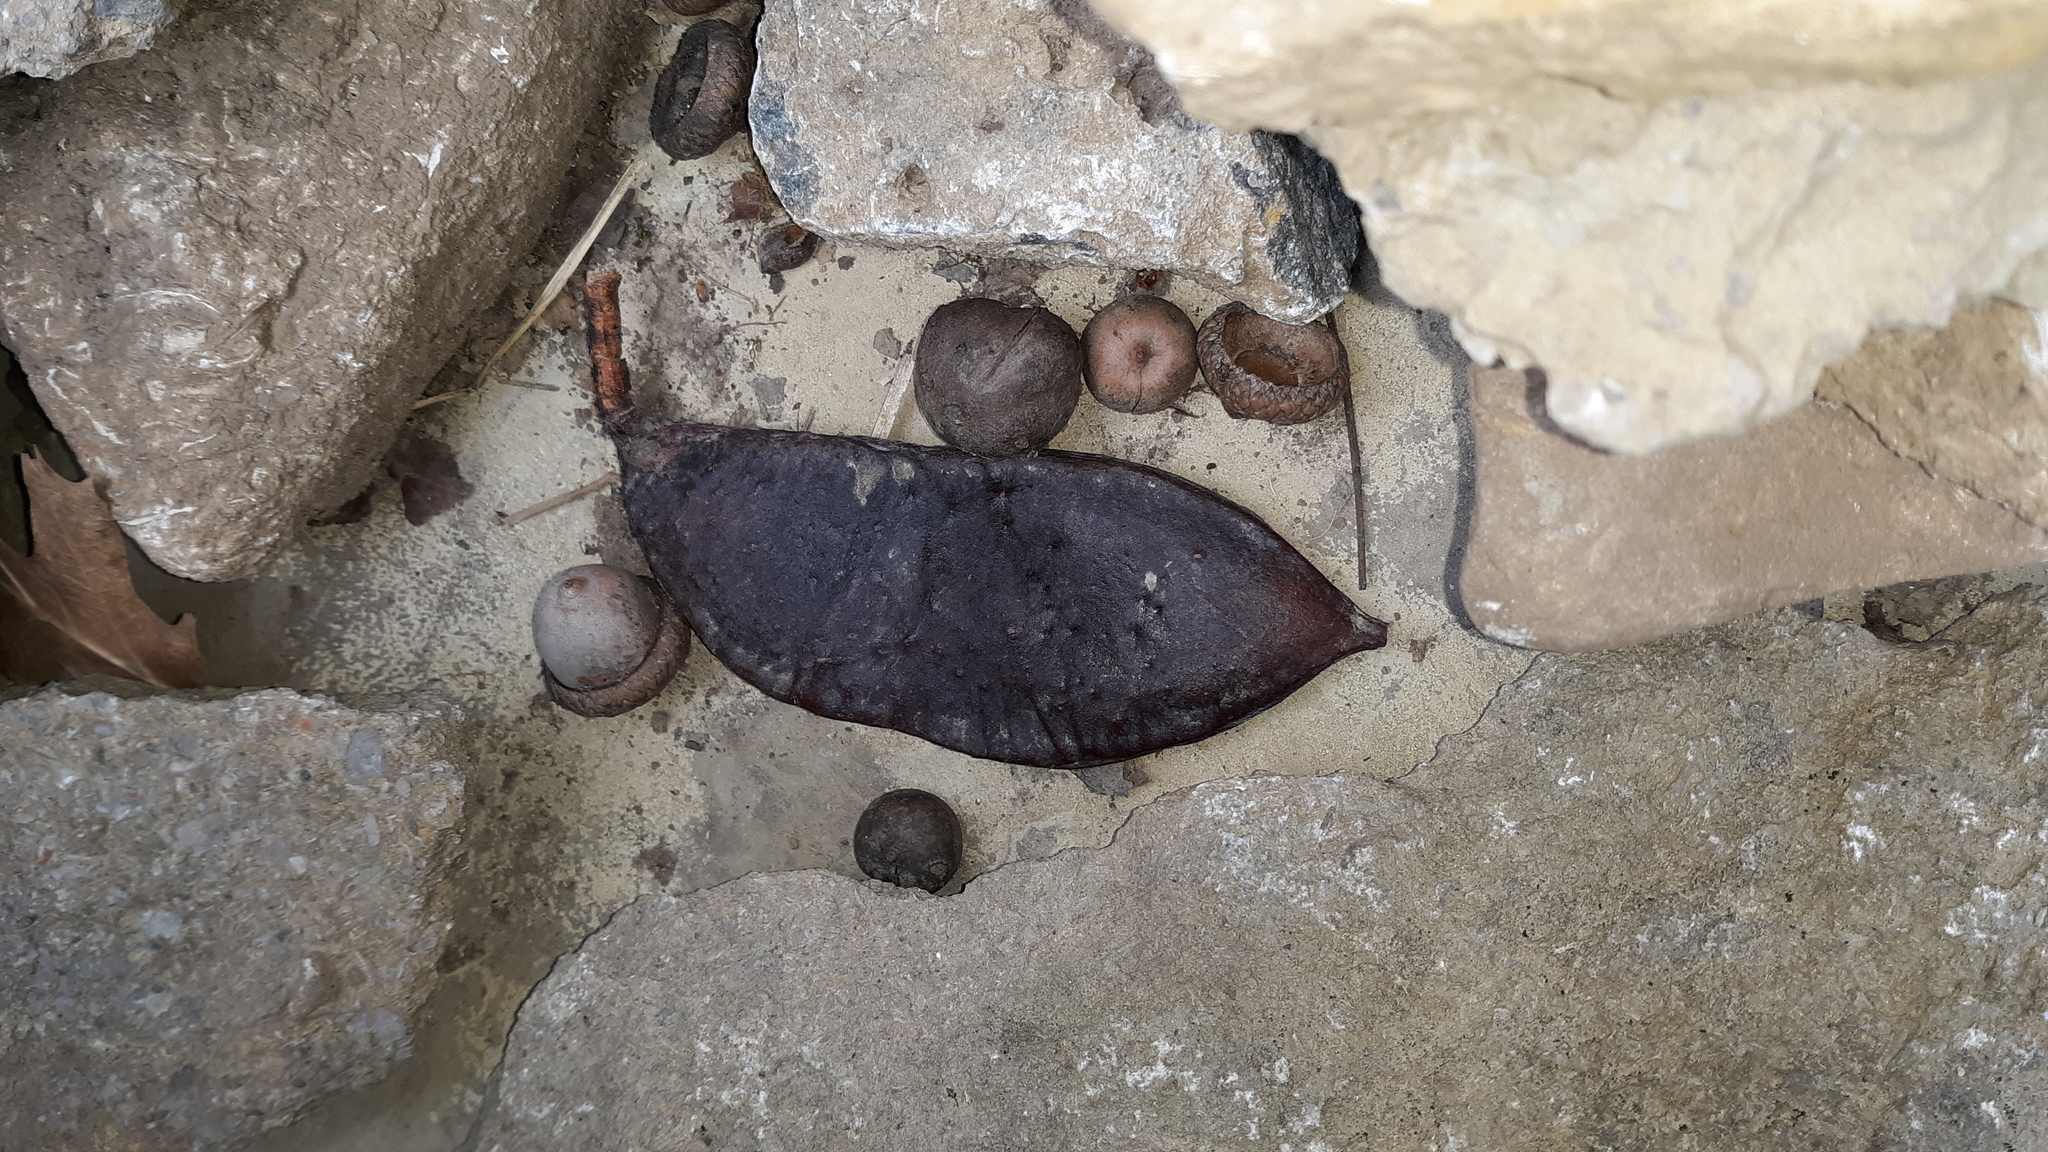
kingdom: Plantae
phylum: Tracheophyta
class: Magnoliopsida
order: Fabales
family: Fabaceae
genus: Gymnocladus
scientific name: Gymnocladus dioicus
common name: Kentucky coffee-tree
